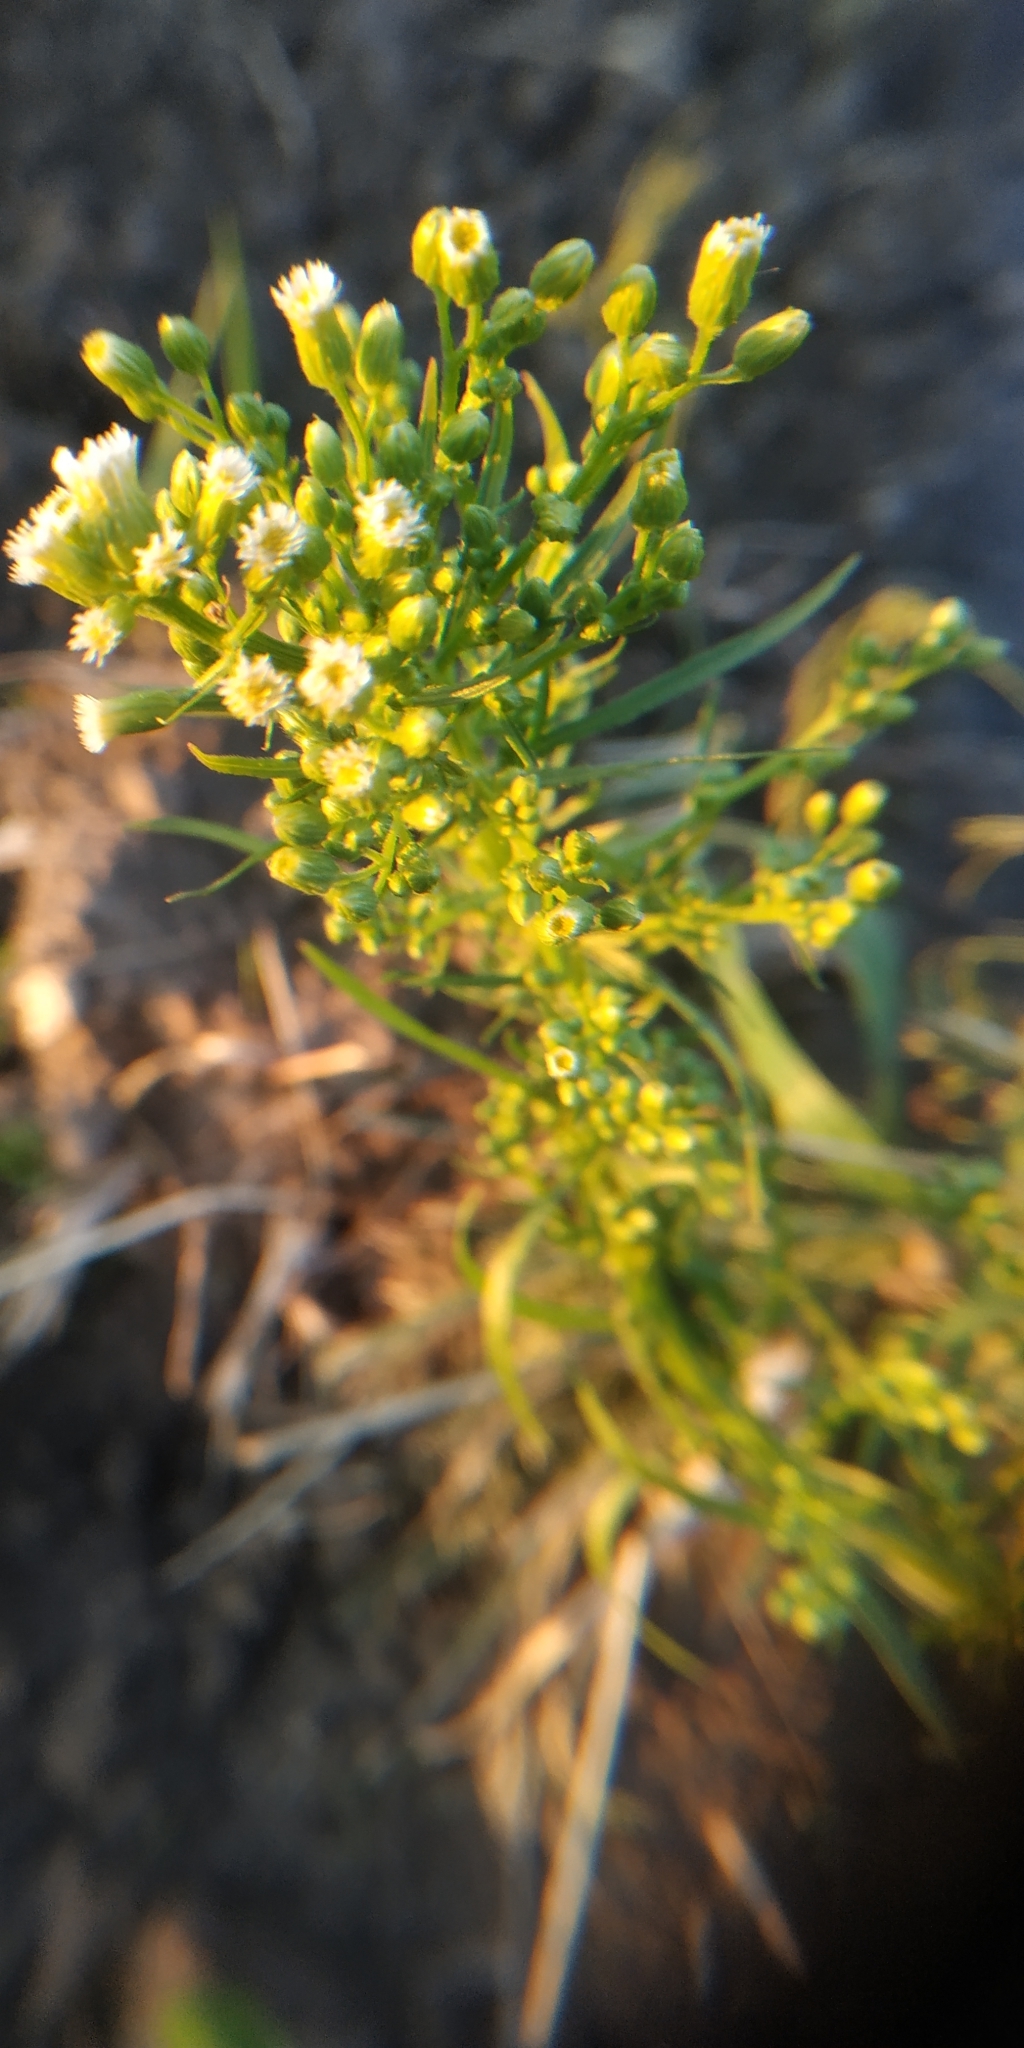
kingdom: Plantae
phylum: Tracheophyta
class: Magnoliopsida
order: Asterales
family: Asteraceae
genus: Erigeron
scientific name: Erigeron canadensis
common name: Canadian fleabane
